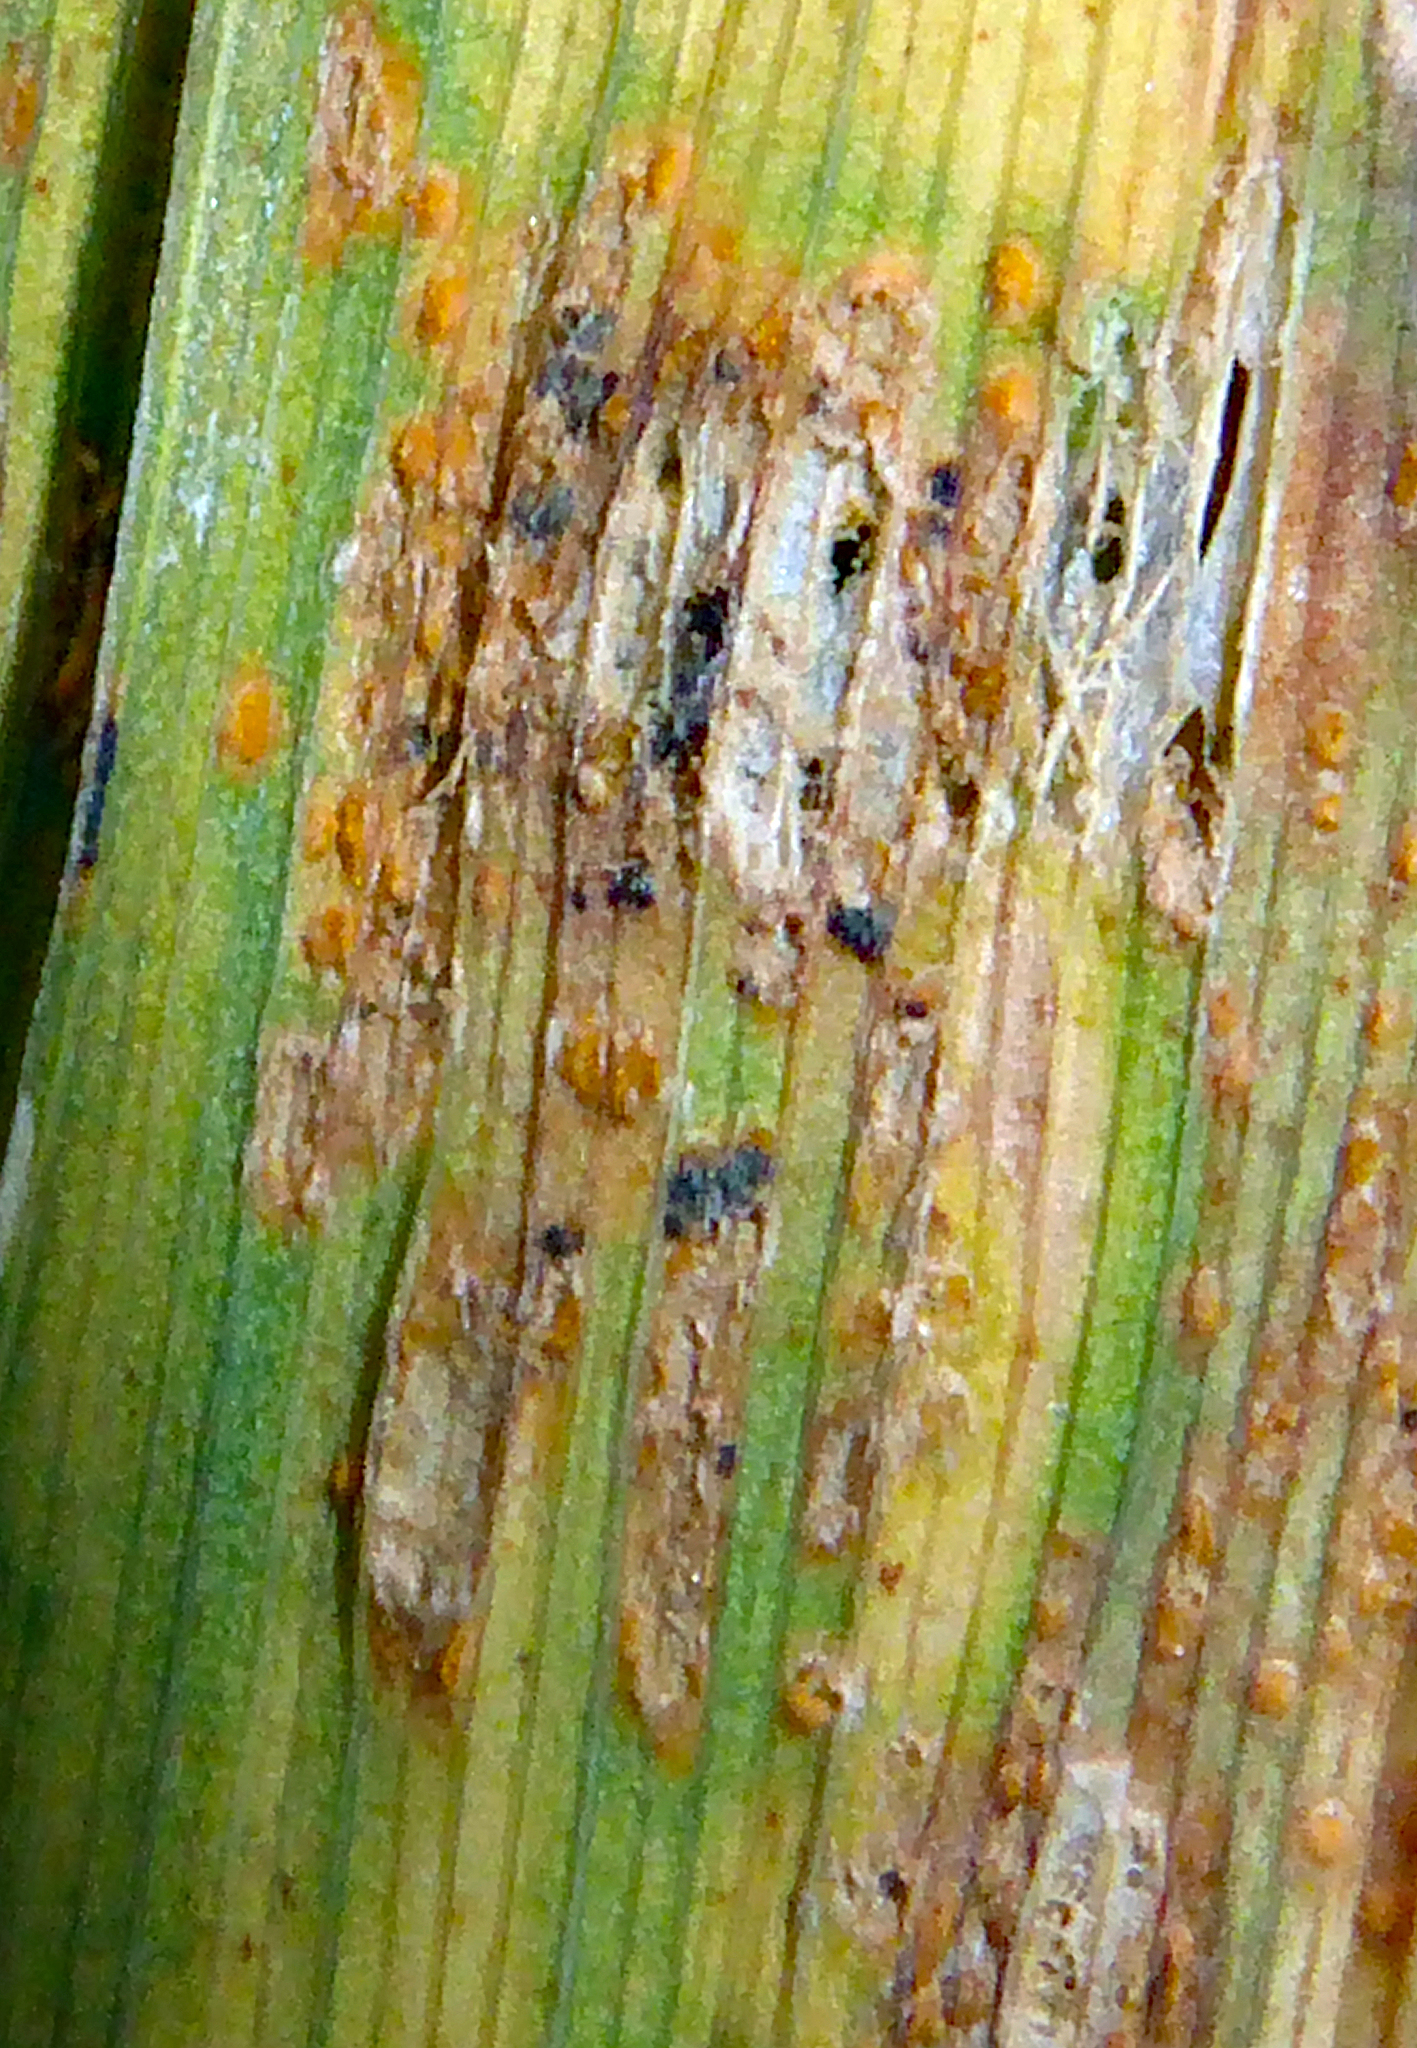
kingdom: Fungi
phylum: Basidiomycota
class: Pucciniomycetes
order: Pucciniales
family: Pucciniaceae
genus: Puccinia
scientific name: Puccinia hemerocallidis
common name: Rust fungus
